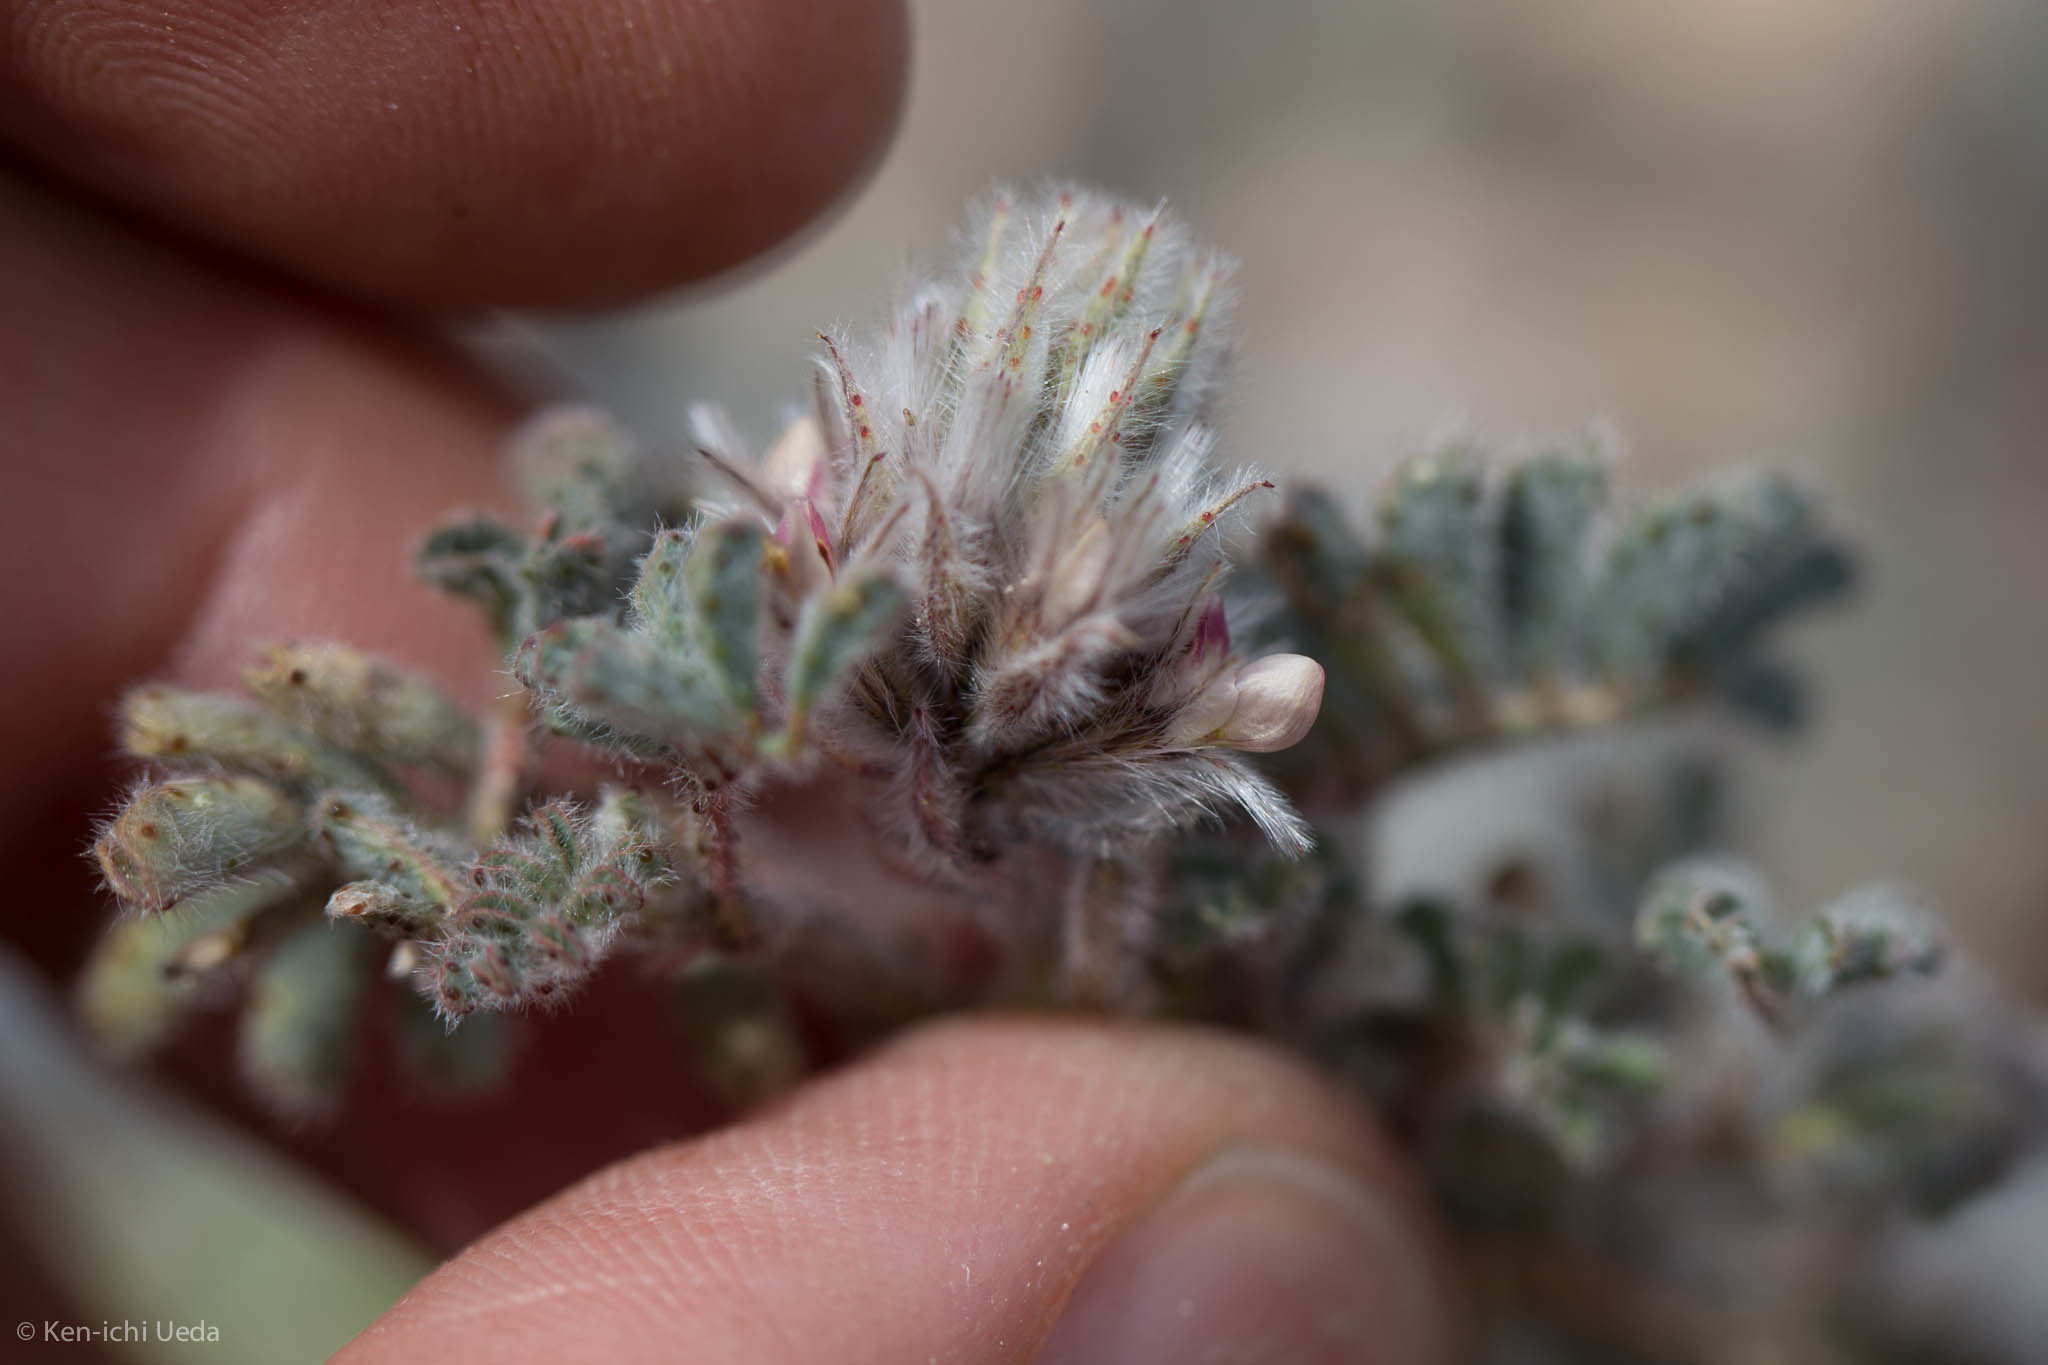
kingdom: Plantae
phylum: Tracheophyta
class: Magnoliopsida
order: Fabales
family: Fabaceae
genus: Dalea
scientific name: Dalea mollissima
